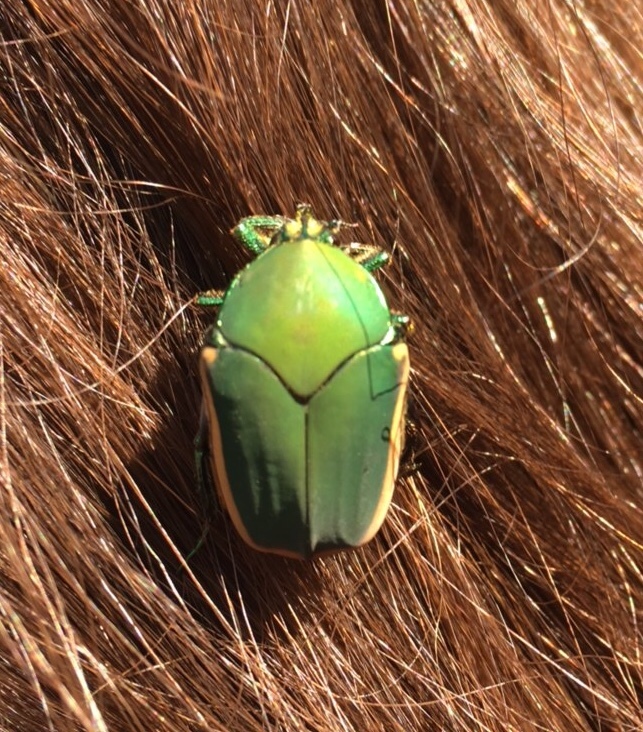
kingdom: Animalia
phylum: Arthropoda
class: Insecta
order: Coleoptera
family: Scarabaeidae
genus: Cotinis
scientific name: Cotinis mutabilis
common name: Figeater beetle
